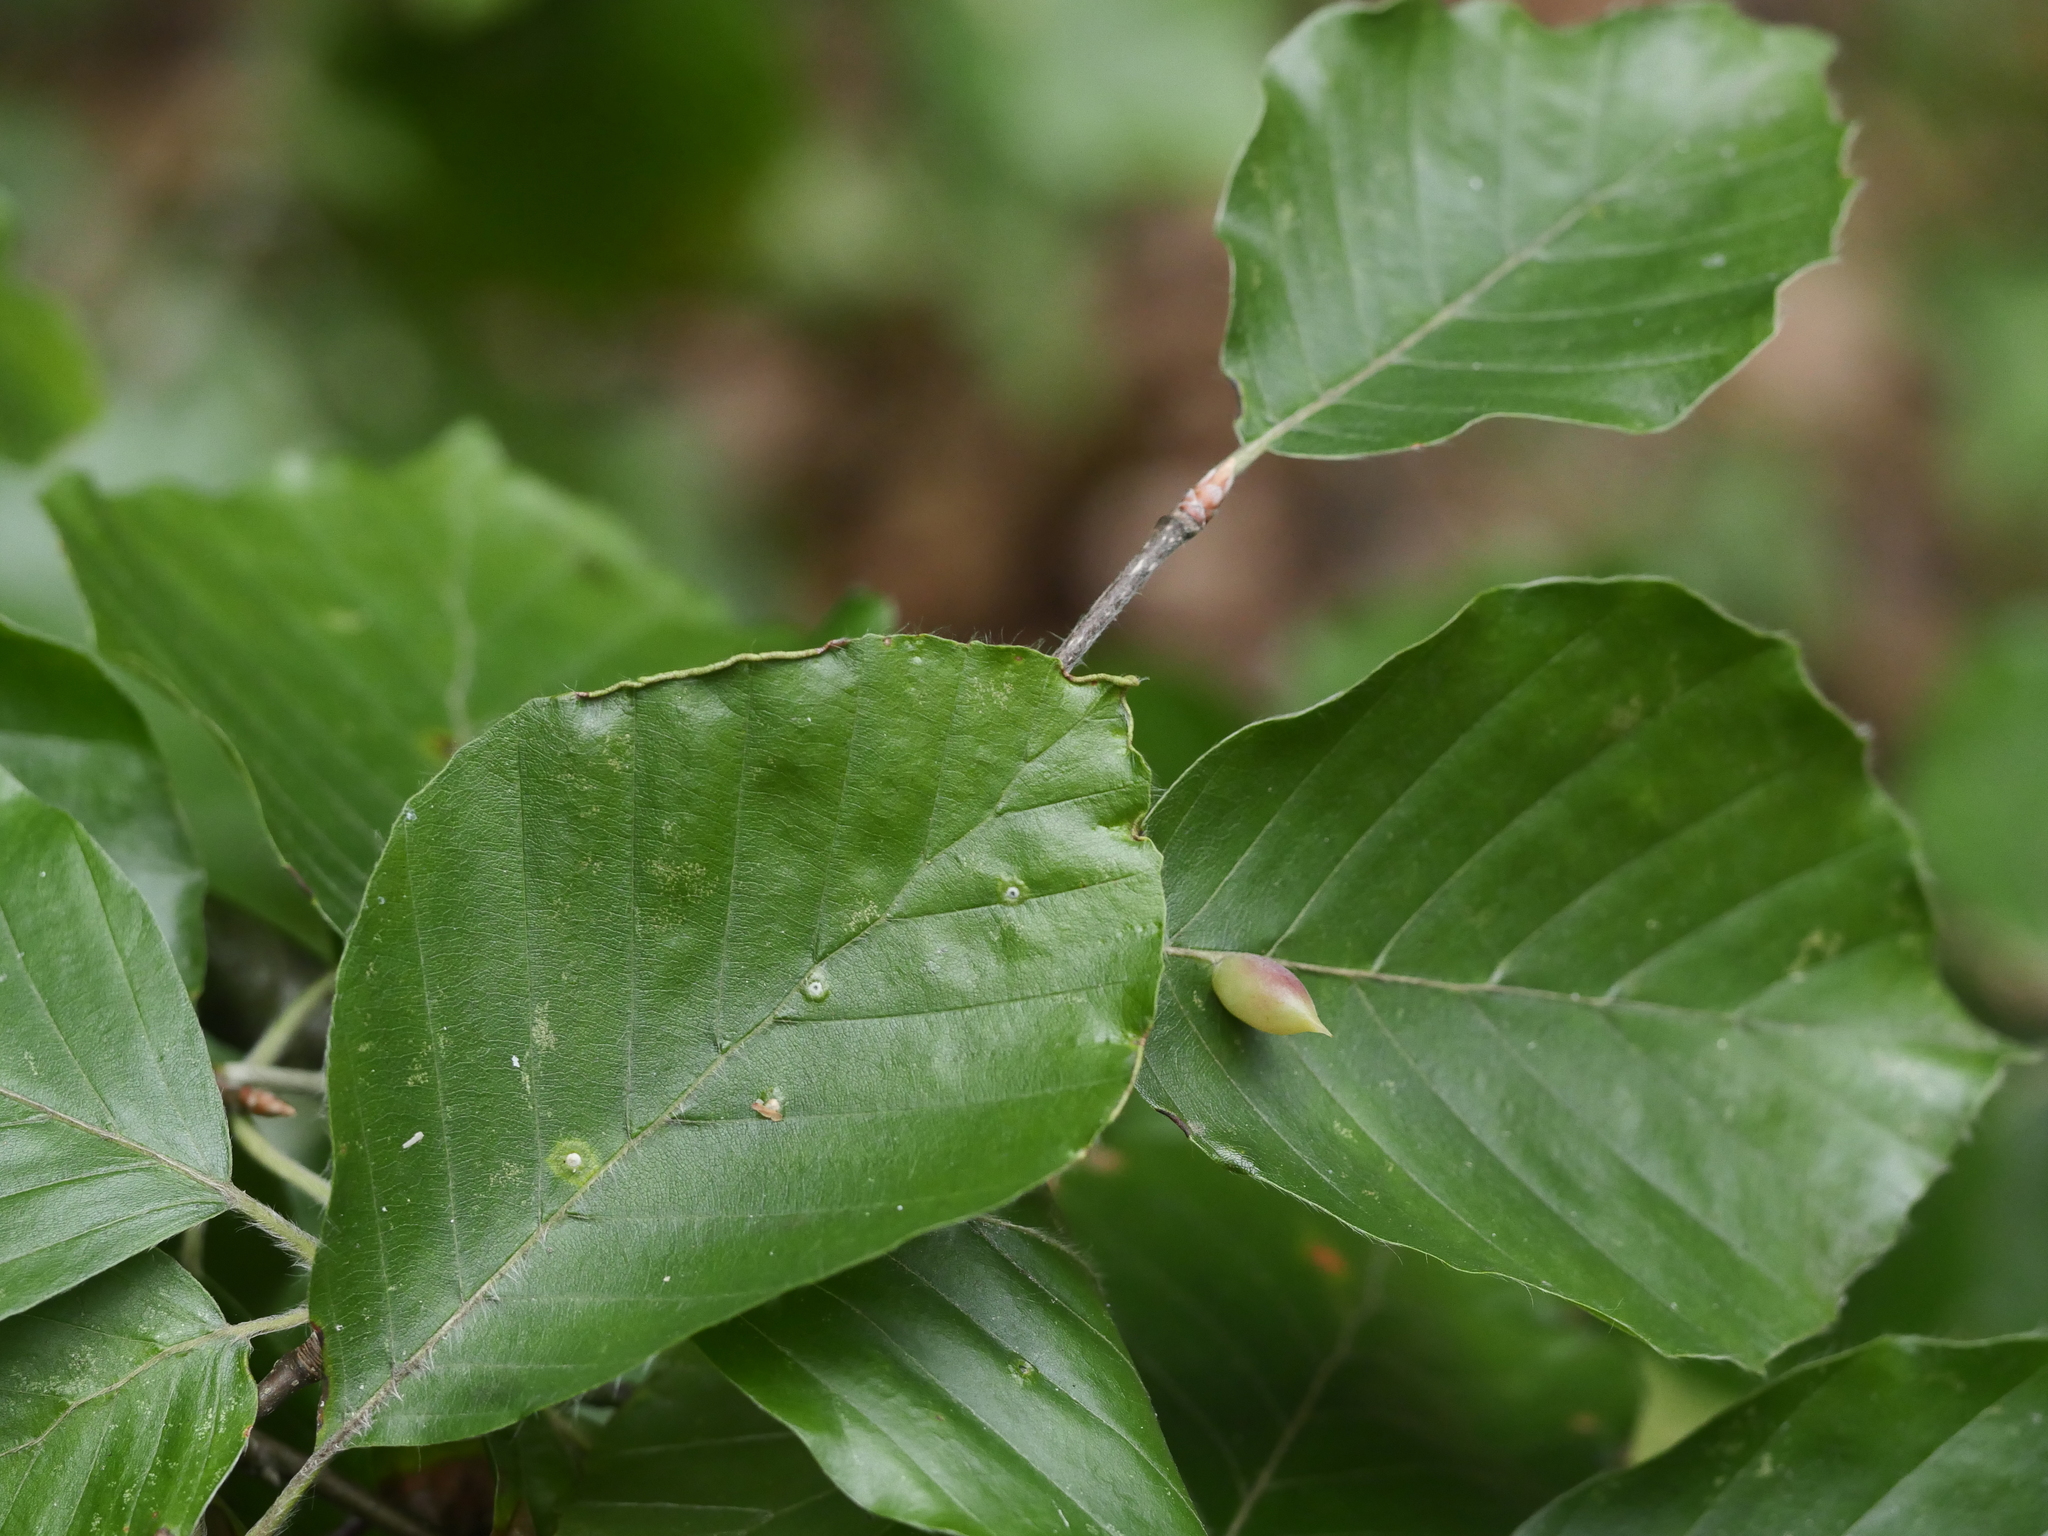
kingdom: Plantae
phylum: Tracheophyta
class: Magnoliopsida
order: Fagales
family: Fagaceae
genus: Fagus
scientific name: Fagus sylvatica
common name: Beech
